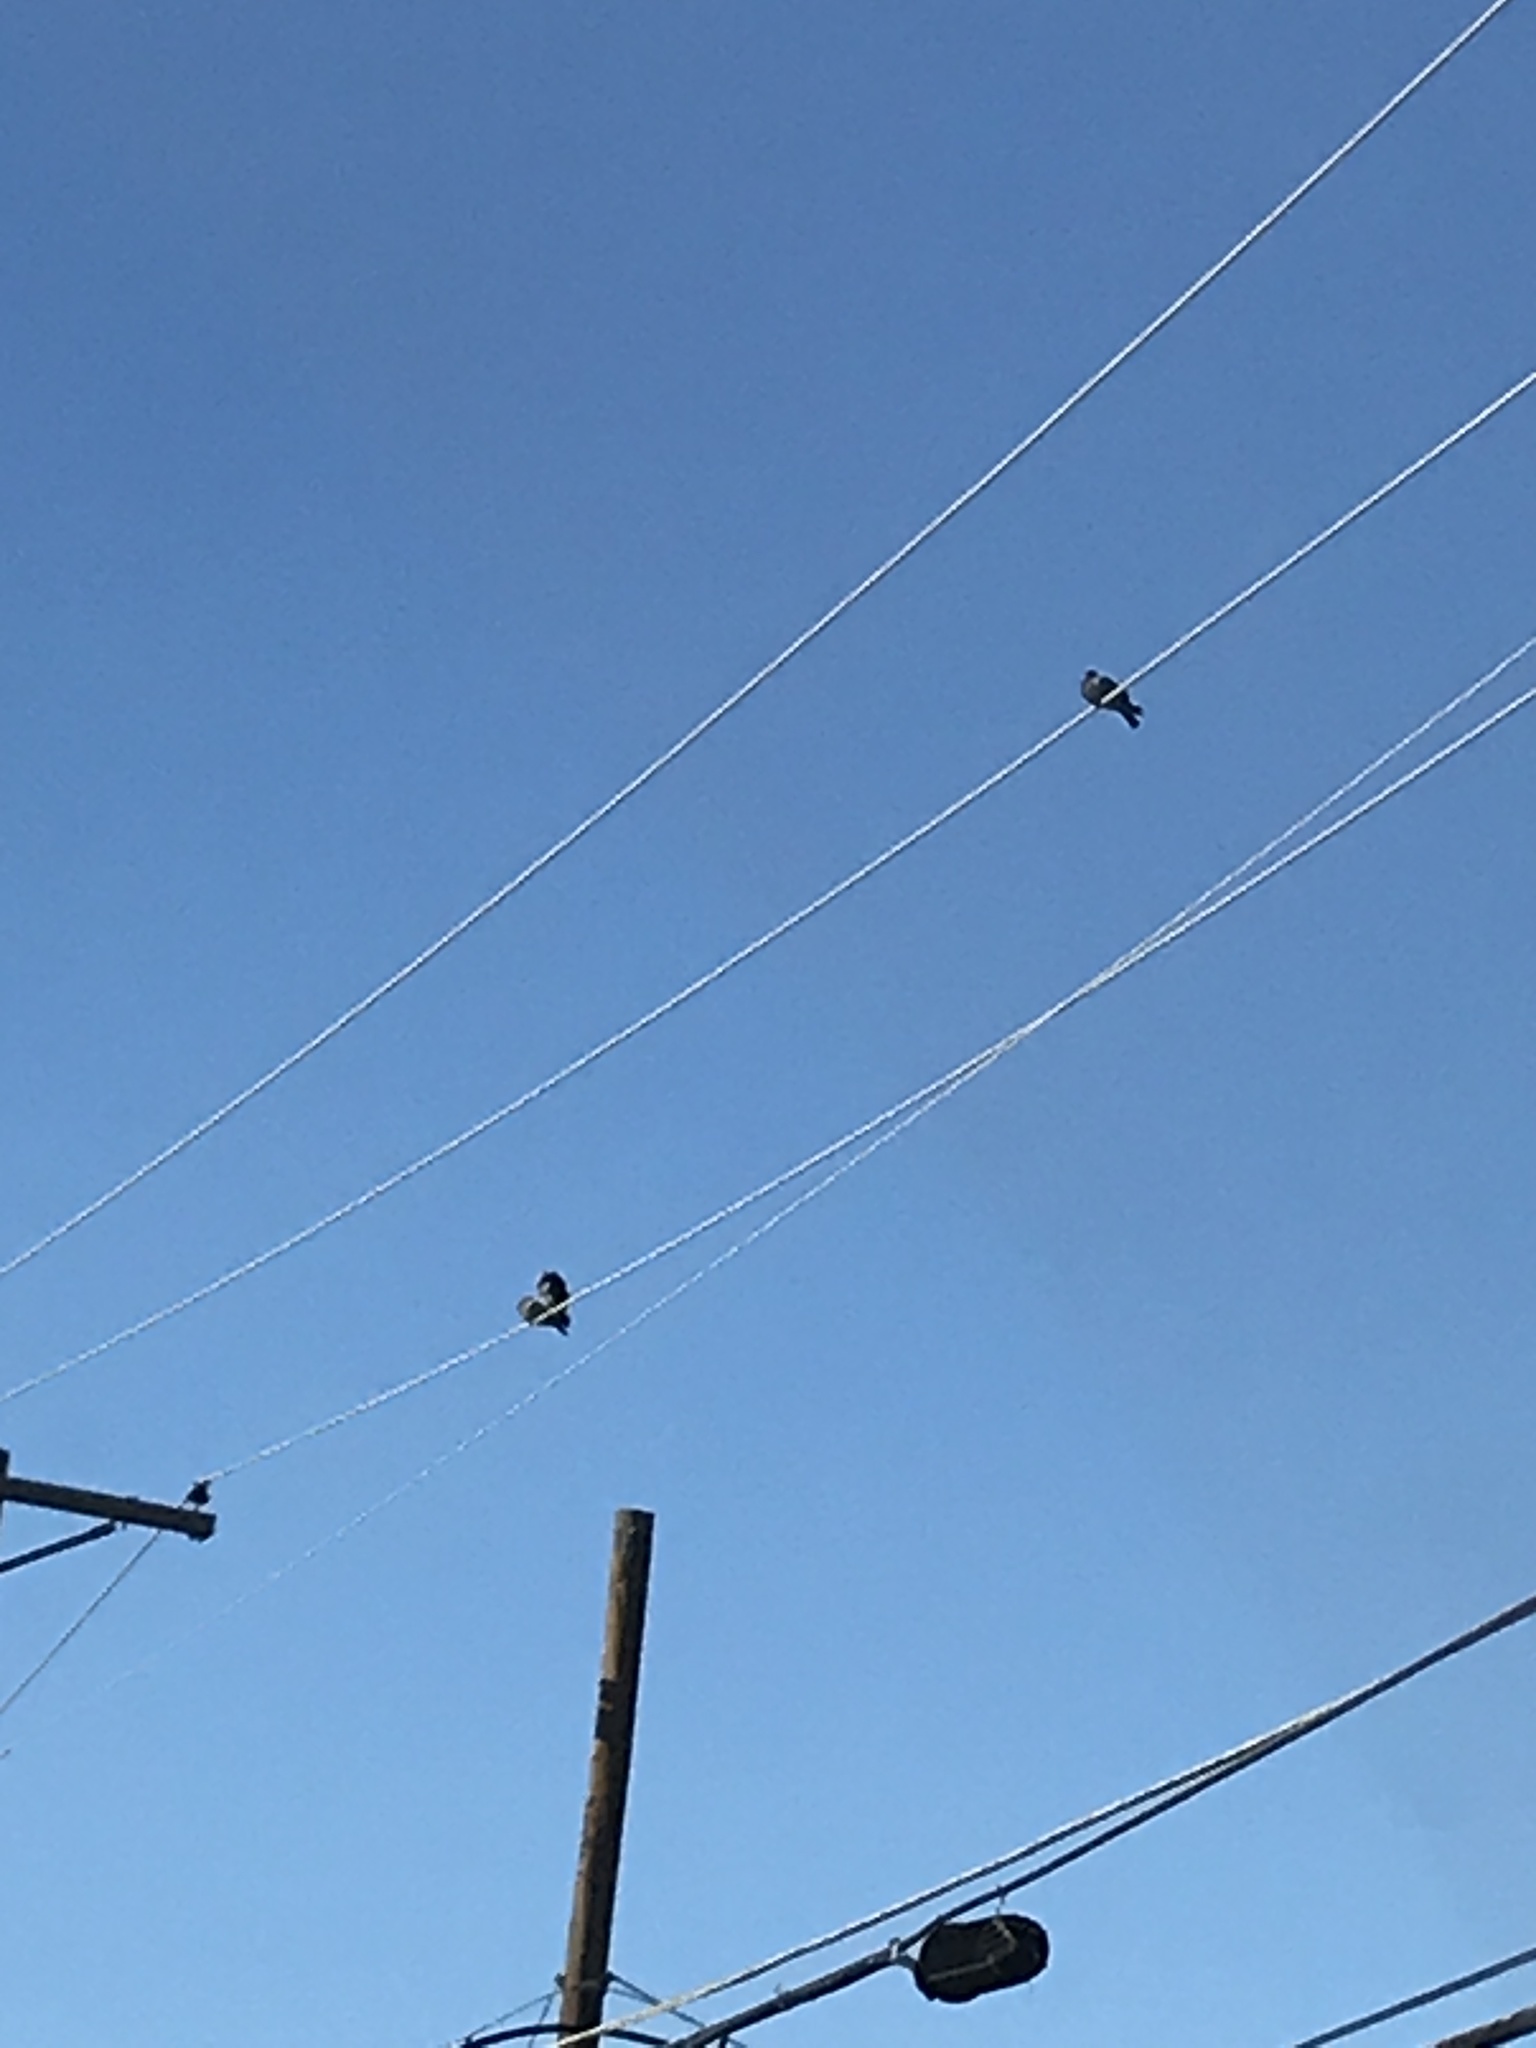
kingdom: Animalia
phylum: Chordata
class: Aves
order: Columbiformes
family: Columbidae
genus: Columba
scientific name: Columba livia
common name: Rock pigeon
